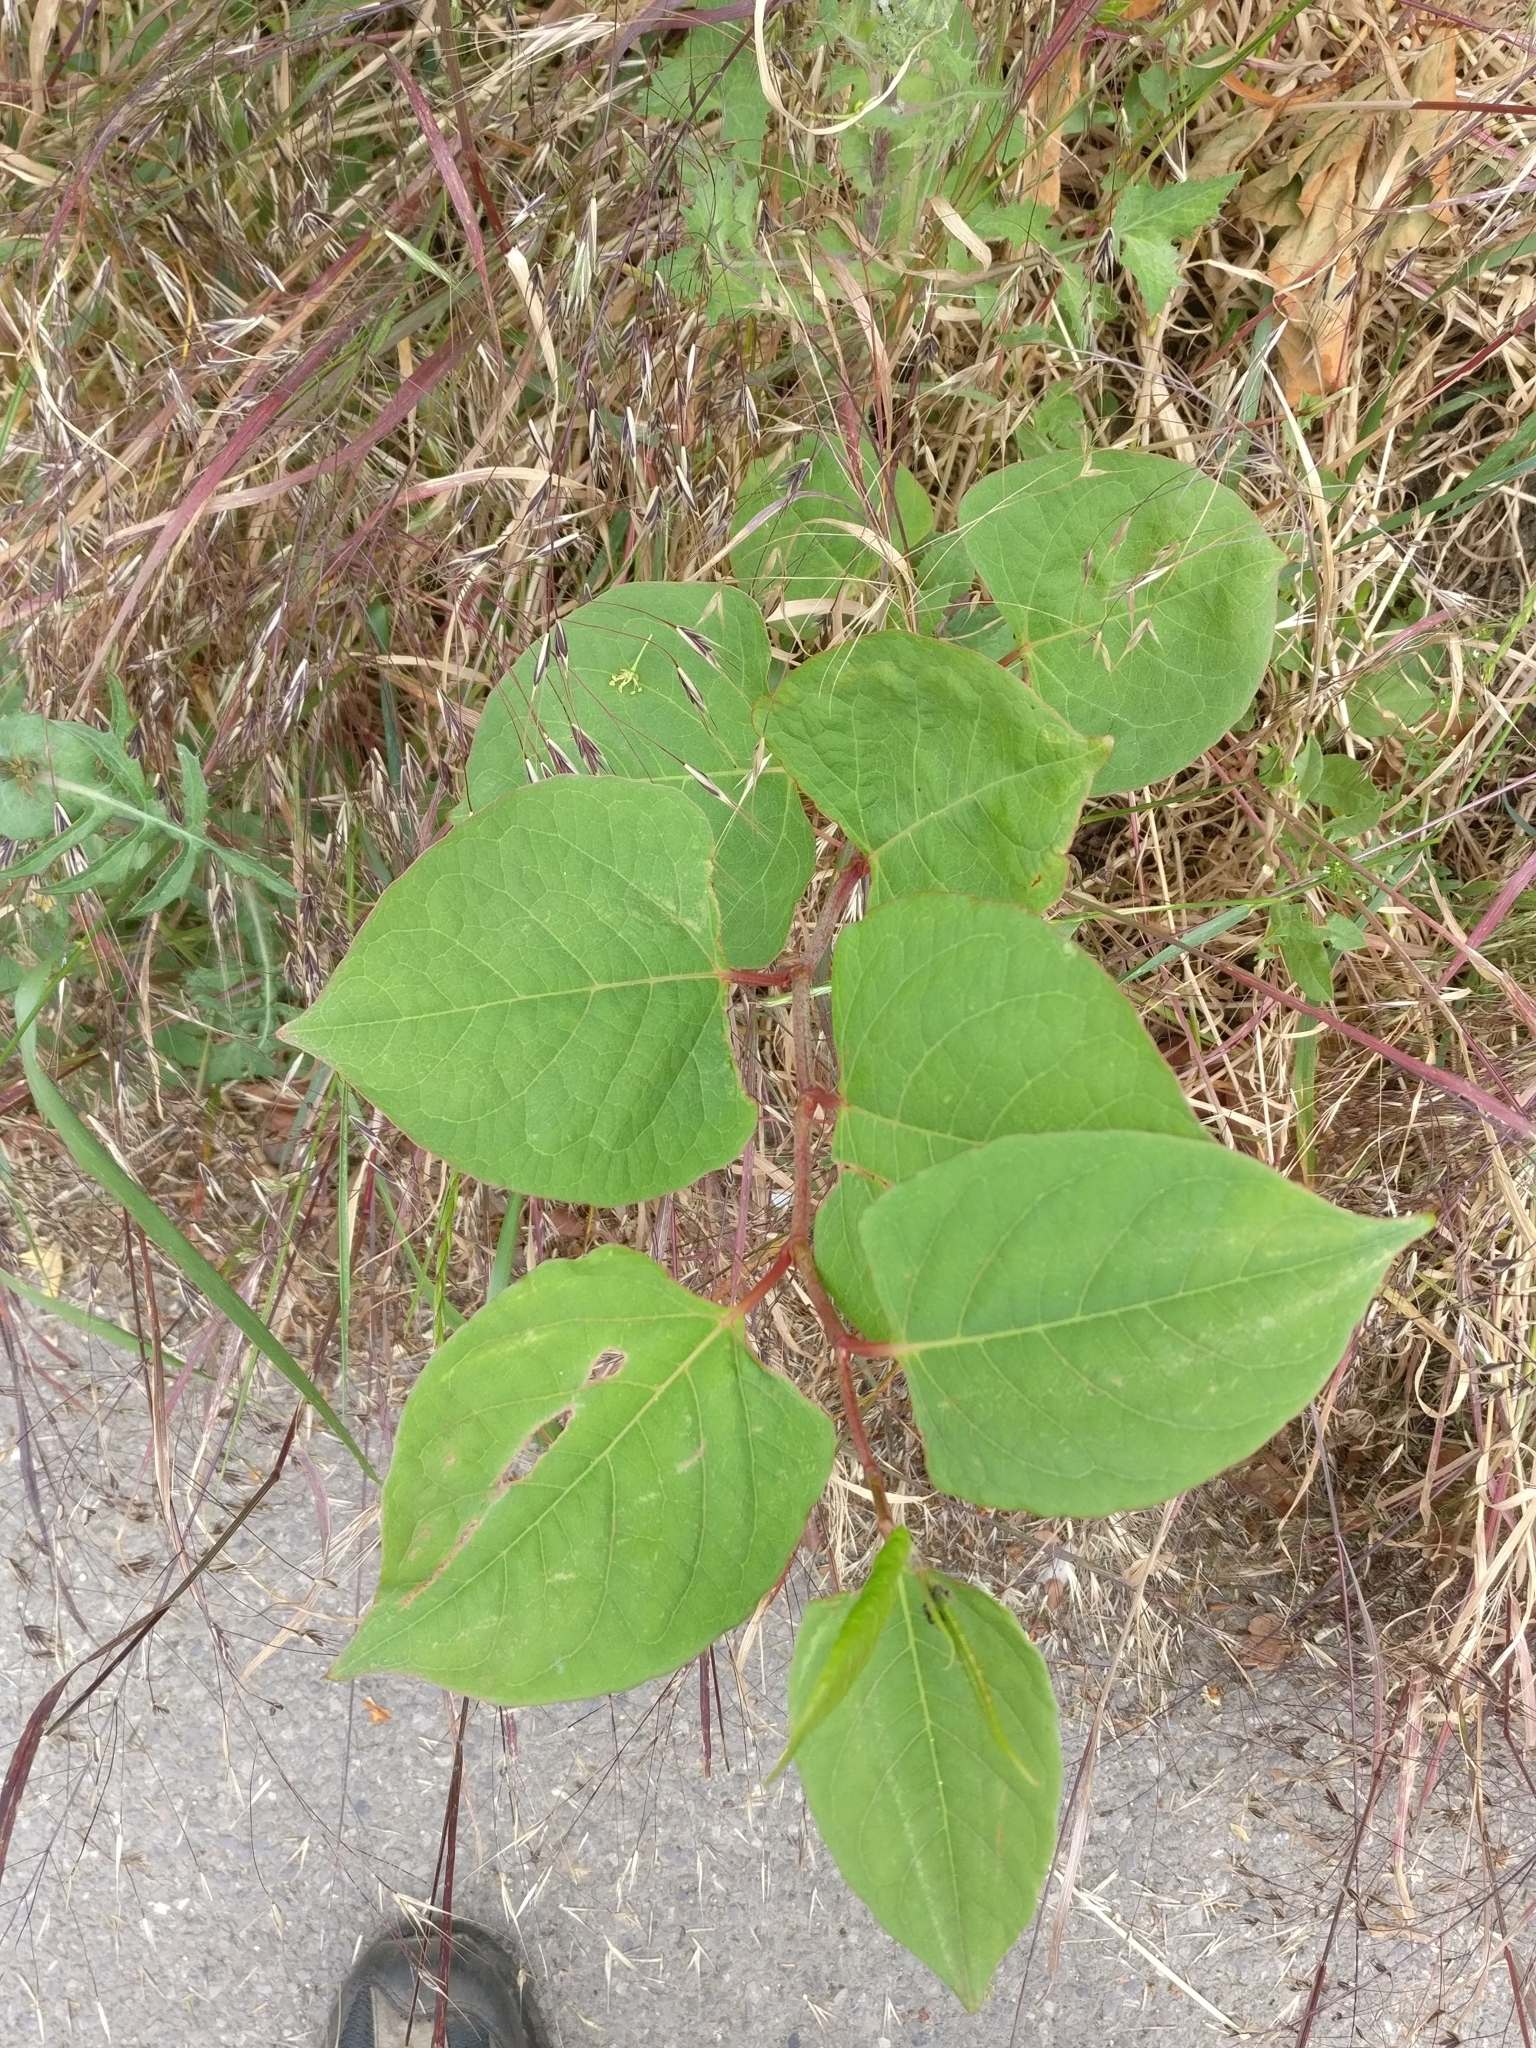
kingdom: Plantae
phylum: Tracheophyta
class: Magnoliopsida
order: Caryophyllales
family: Polygonaceae
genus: Reynoutria
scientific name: Reynoutria japonica
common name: Japanese knotweed
